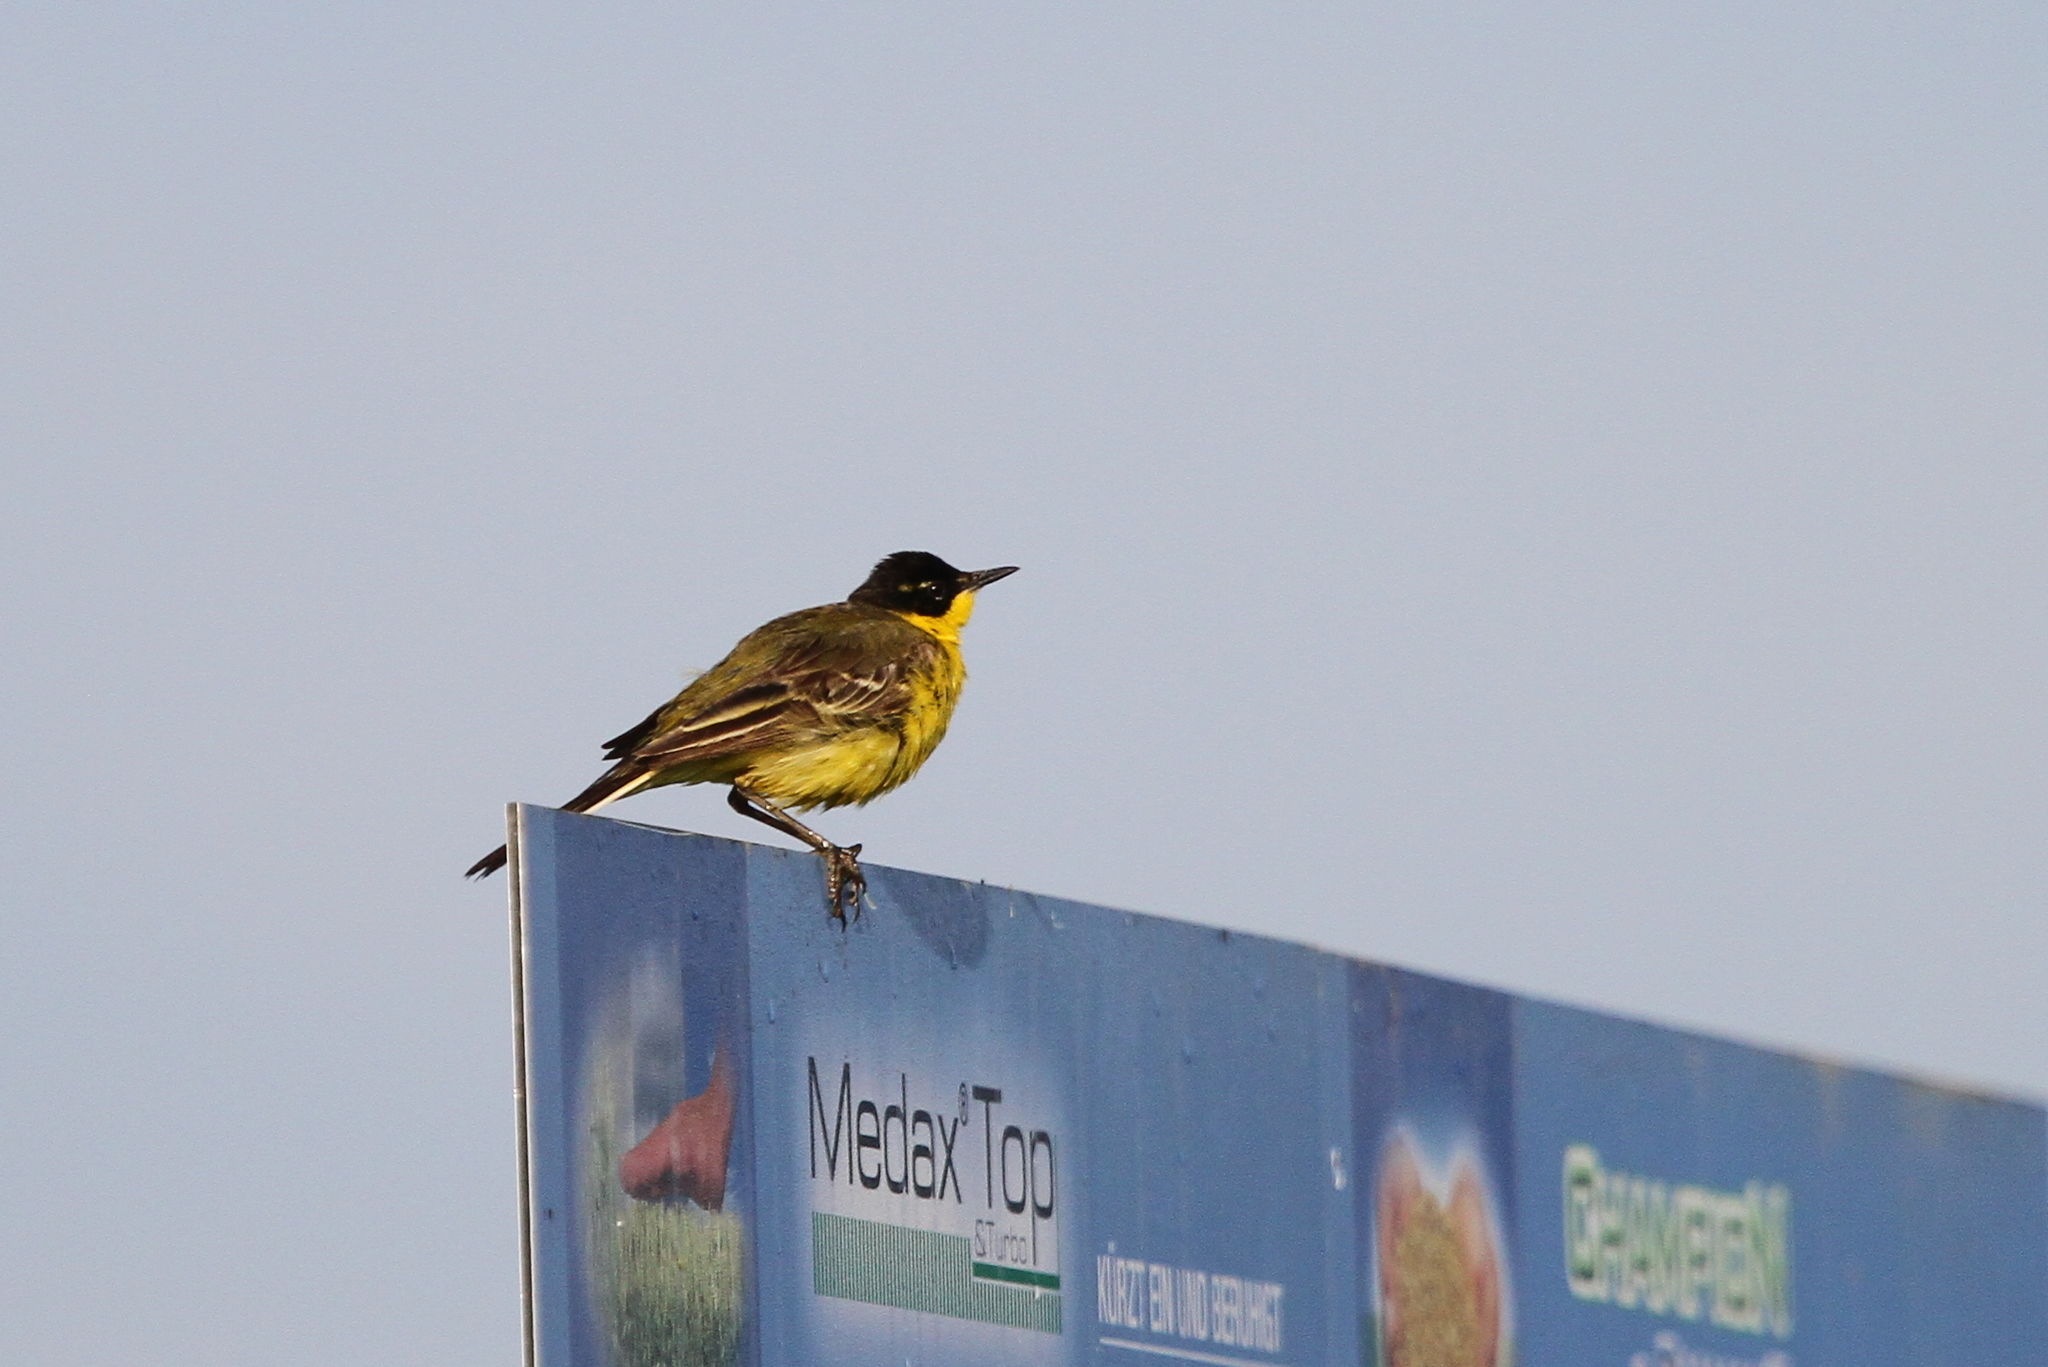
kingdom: Animalia
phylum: Chordata
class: Aves
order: Passeriformes
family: Motacillidae
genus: Motacilla
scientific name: Motacilla flava
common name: Western yellow wagtail
